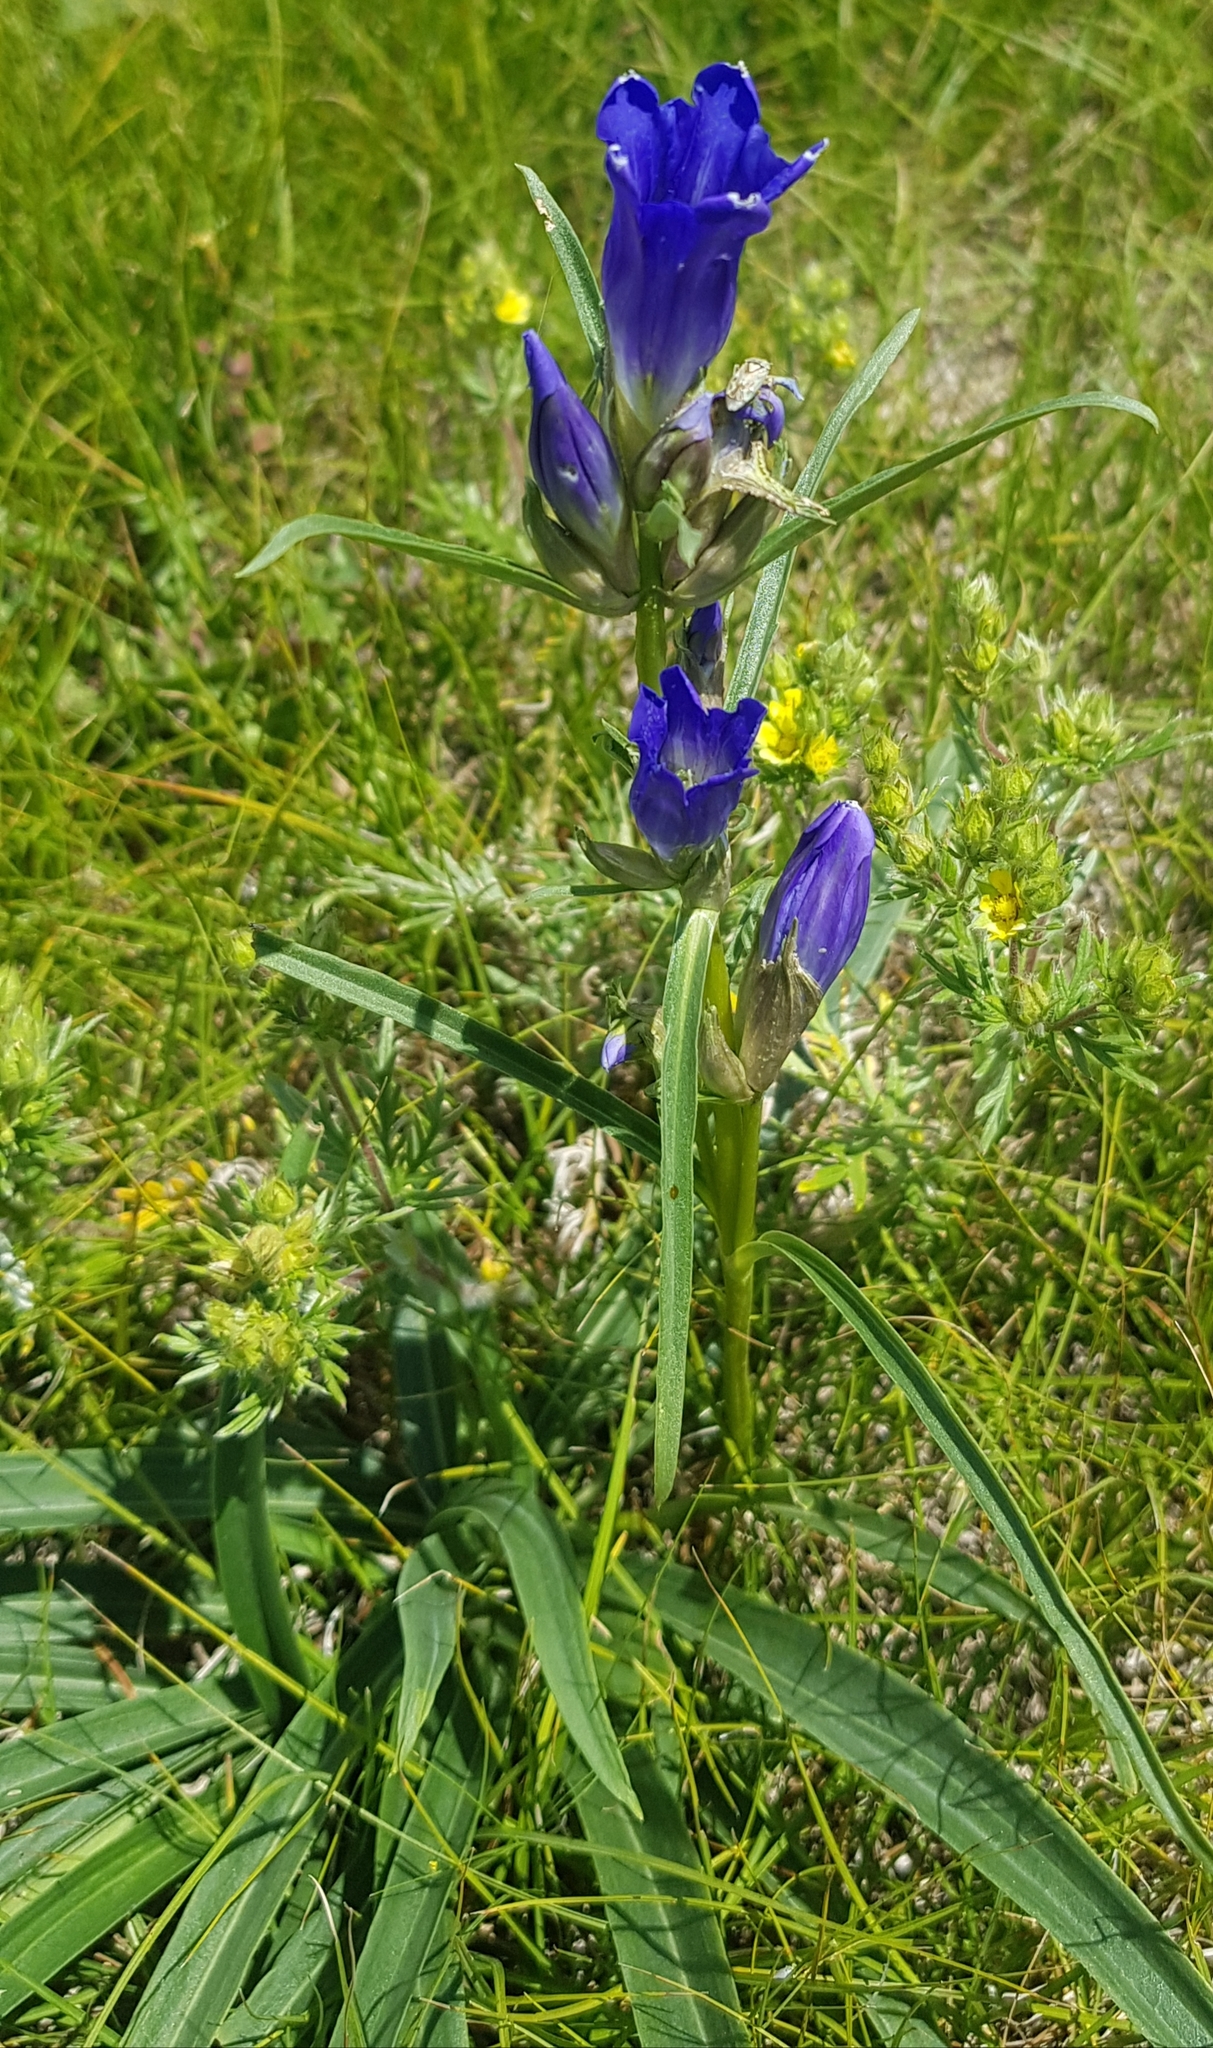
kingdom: Plantae
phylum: Tracheophyta
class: Magnoliopsida
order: Gentianales
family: Gentianaceae
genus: Gentiana
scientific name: Gentiana decumbens
